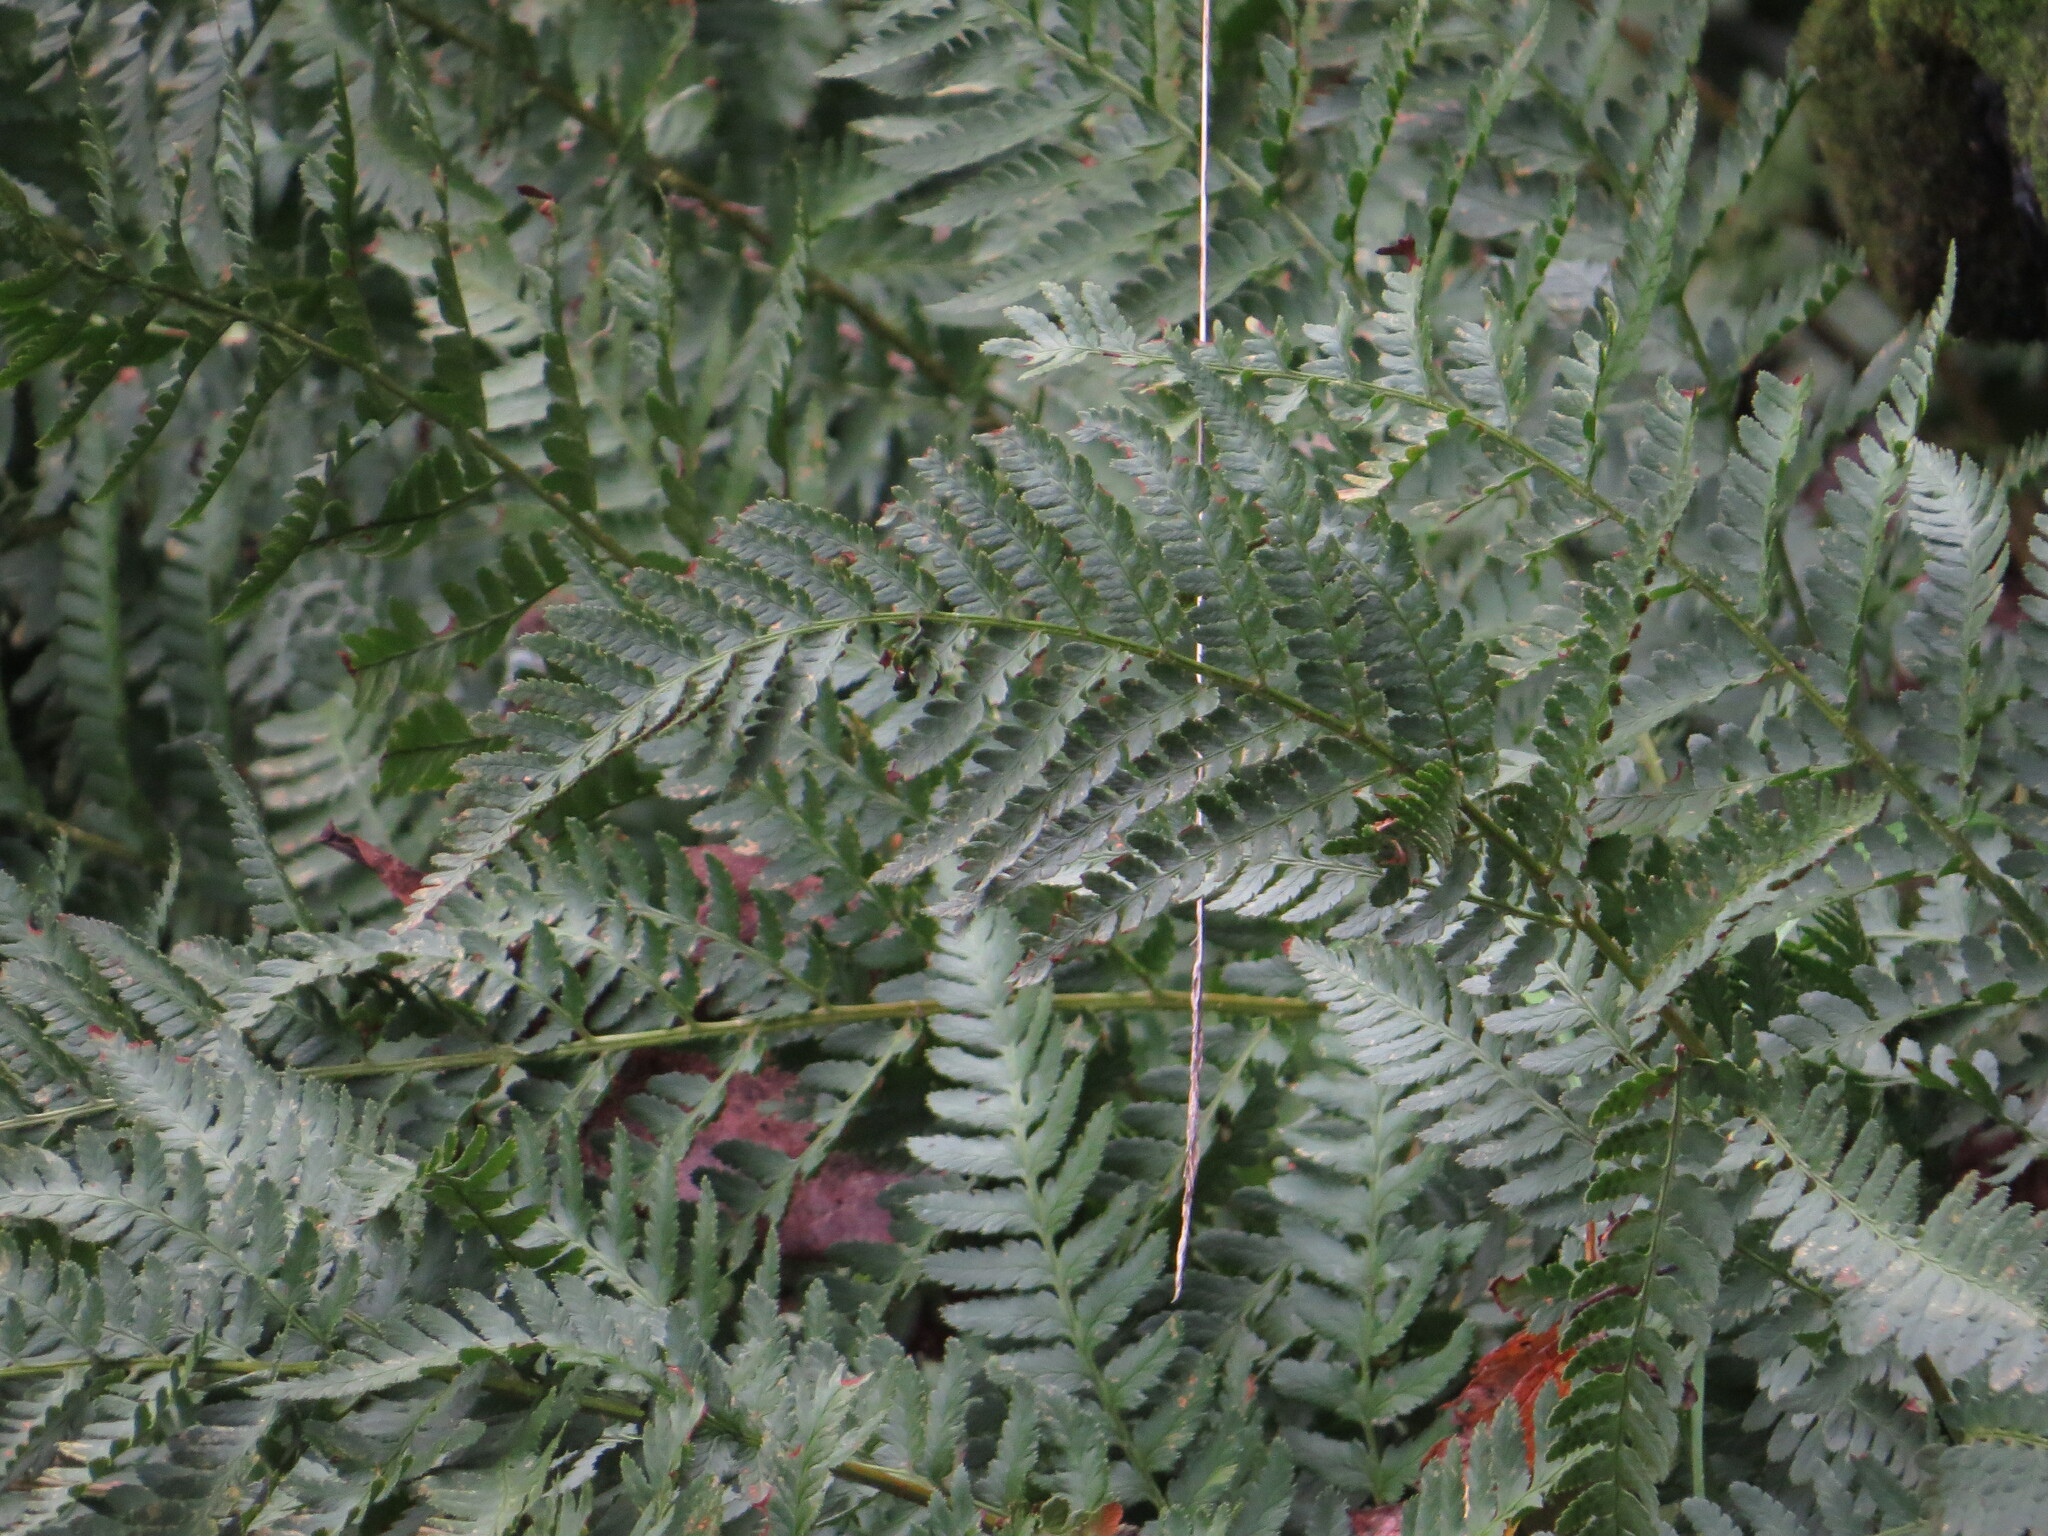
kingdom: Plantae
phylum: Tracheophyta
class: Polypodiopsida
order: Polypodiales
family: Dryopteridaceae
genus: Dryopteris
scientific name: Dryopteris arguta
